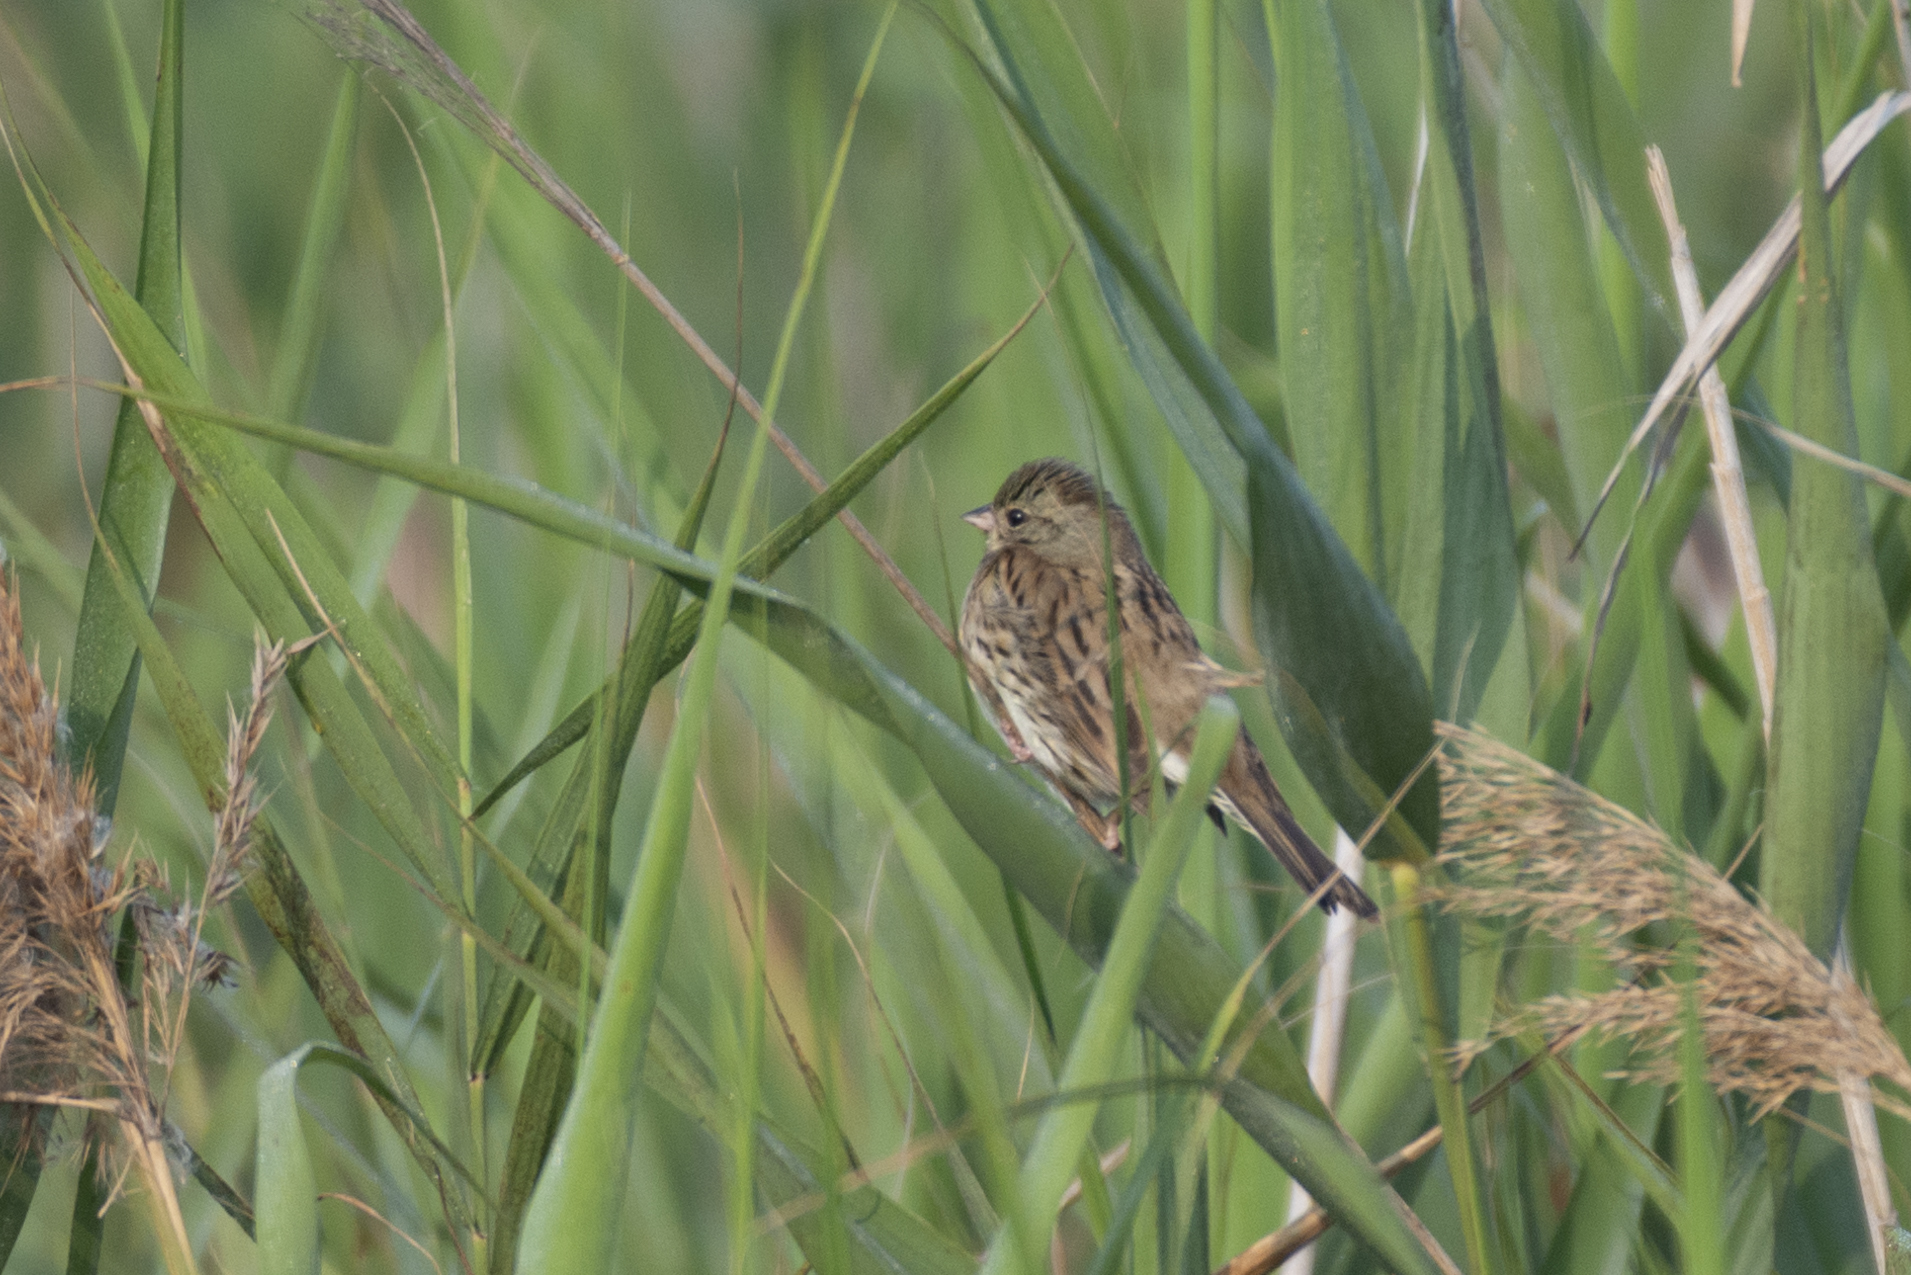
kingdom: Animalia
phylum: Chordata
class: Aves
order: Passeriformes
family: Emberizidae
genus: Emberiza
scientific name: Emberiza spodocephala
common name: Black-faced bunting
